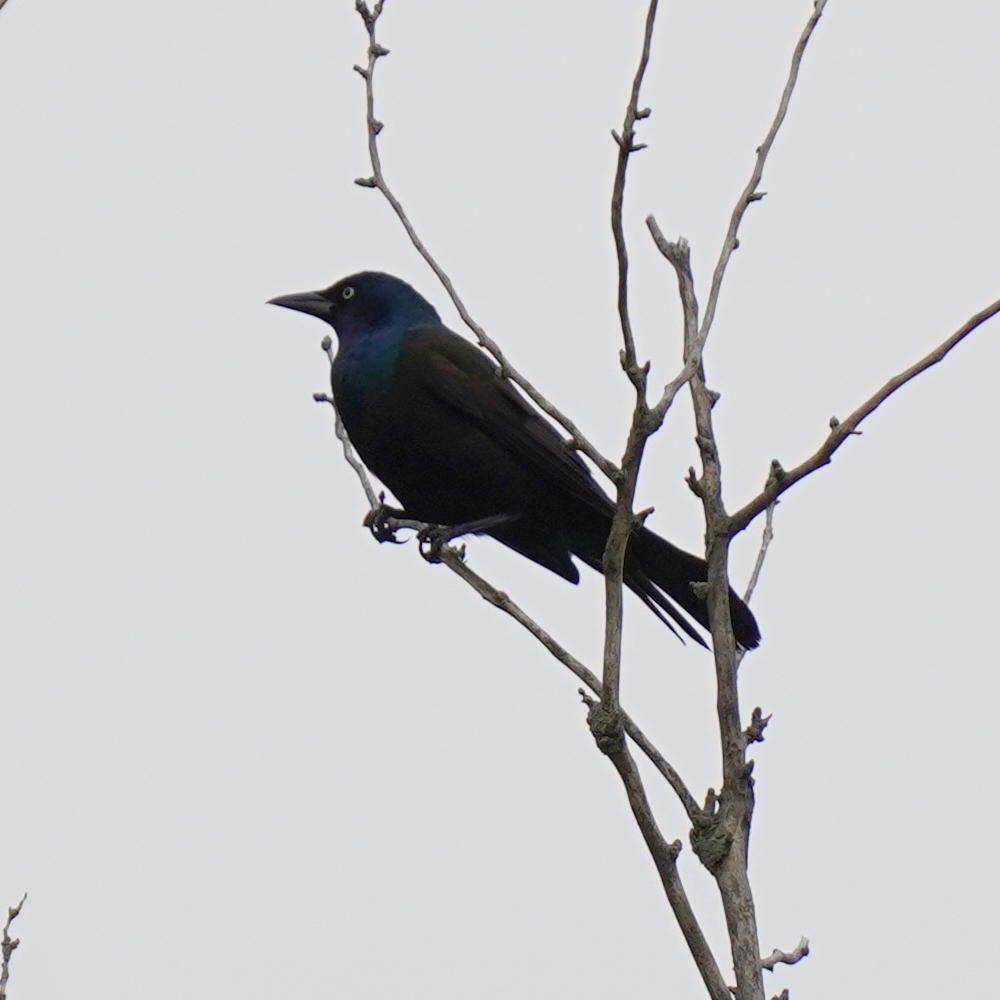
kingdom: Animalia
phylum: Chordata
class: Aves
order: Passeriformes
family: Icteridae
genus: Quiscalus
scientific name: Quiscalus quiscula
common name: Common grackle
